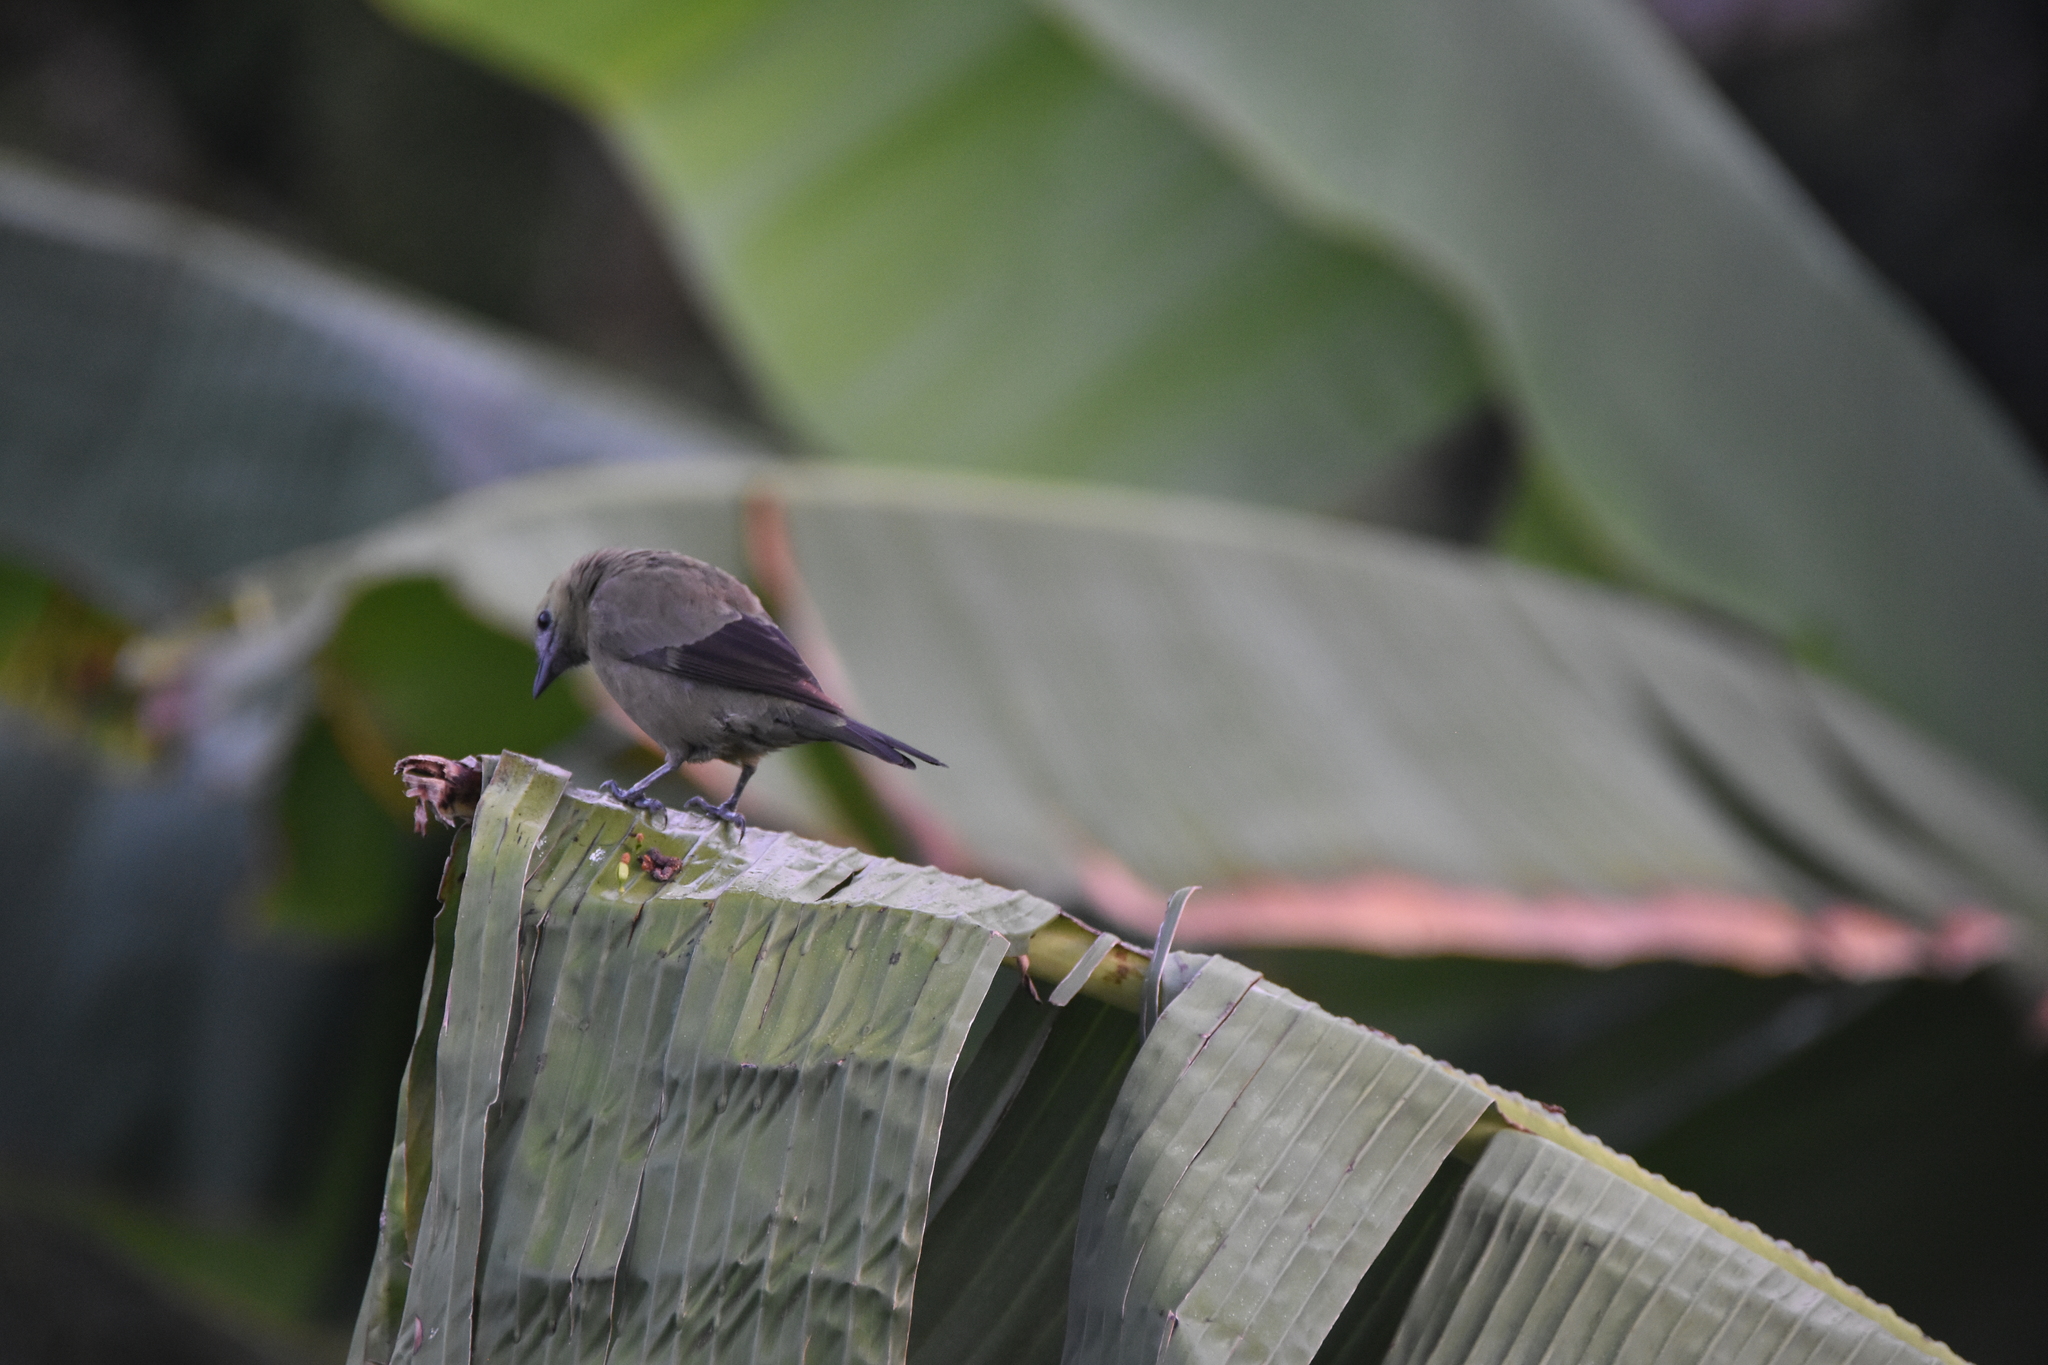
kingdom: Animalia
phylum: Chordata
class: Aves
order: Passeriformes
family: Thraupidae
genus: Thraupis
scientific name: Thraupis palmarum
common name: Palm tanager
